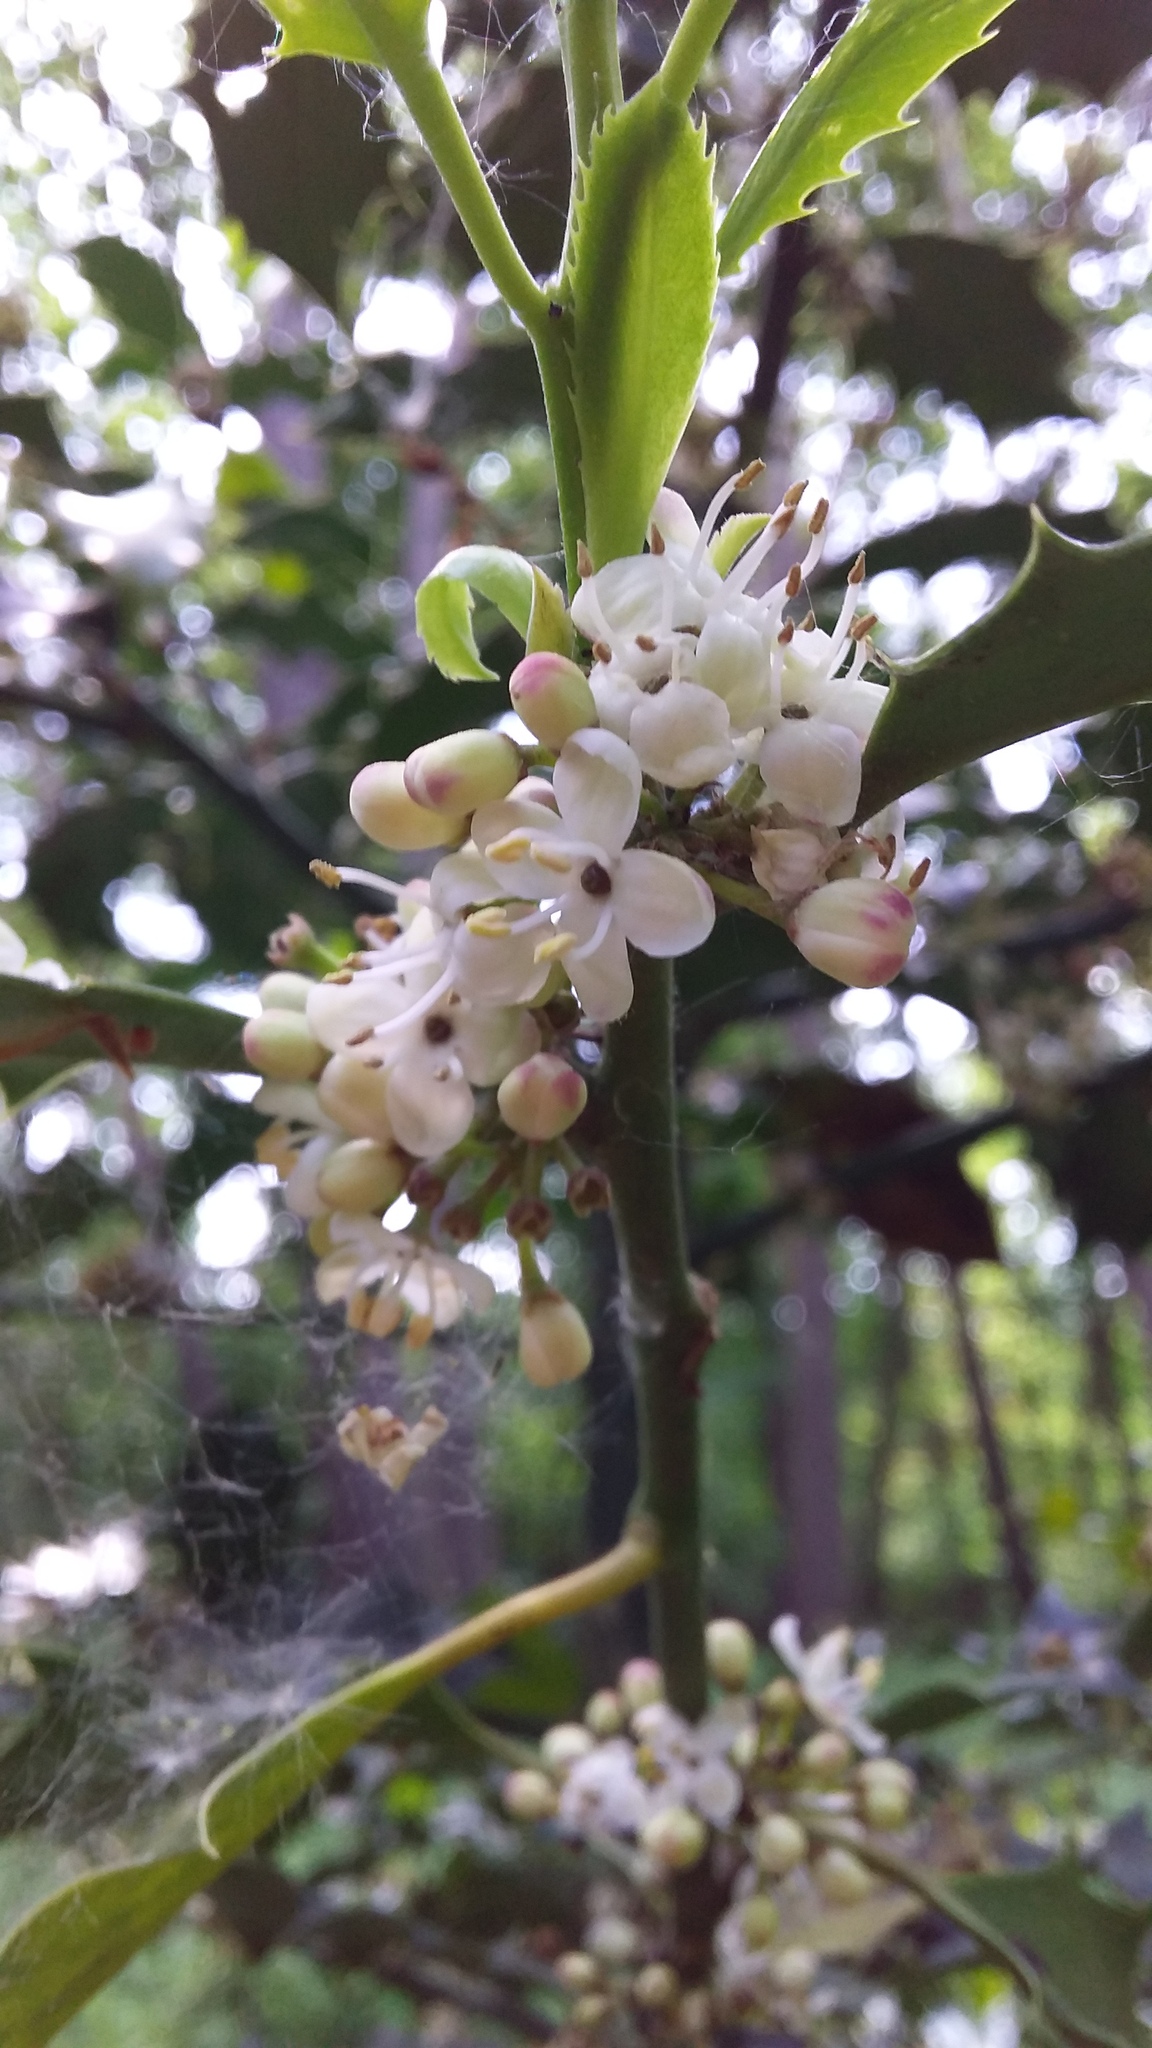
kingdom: Plantae
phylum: Tracheophyta
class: Magnoliopsida
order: Aquifoliales
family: Aquifoliaceae
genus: Ilex
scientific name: Ilex aquifolium
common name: English holly
